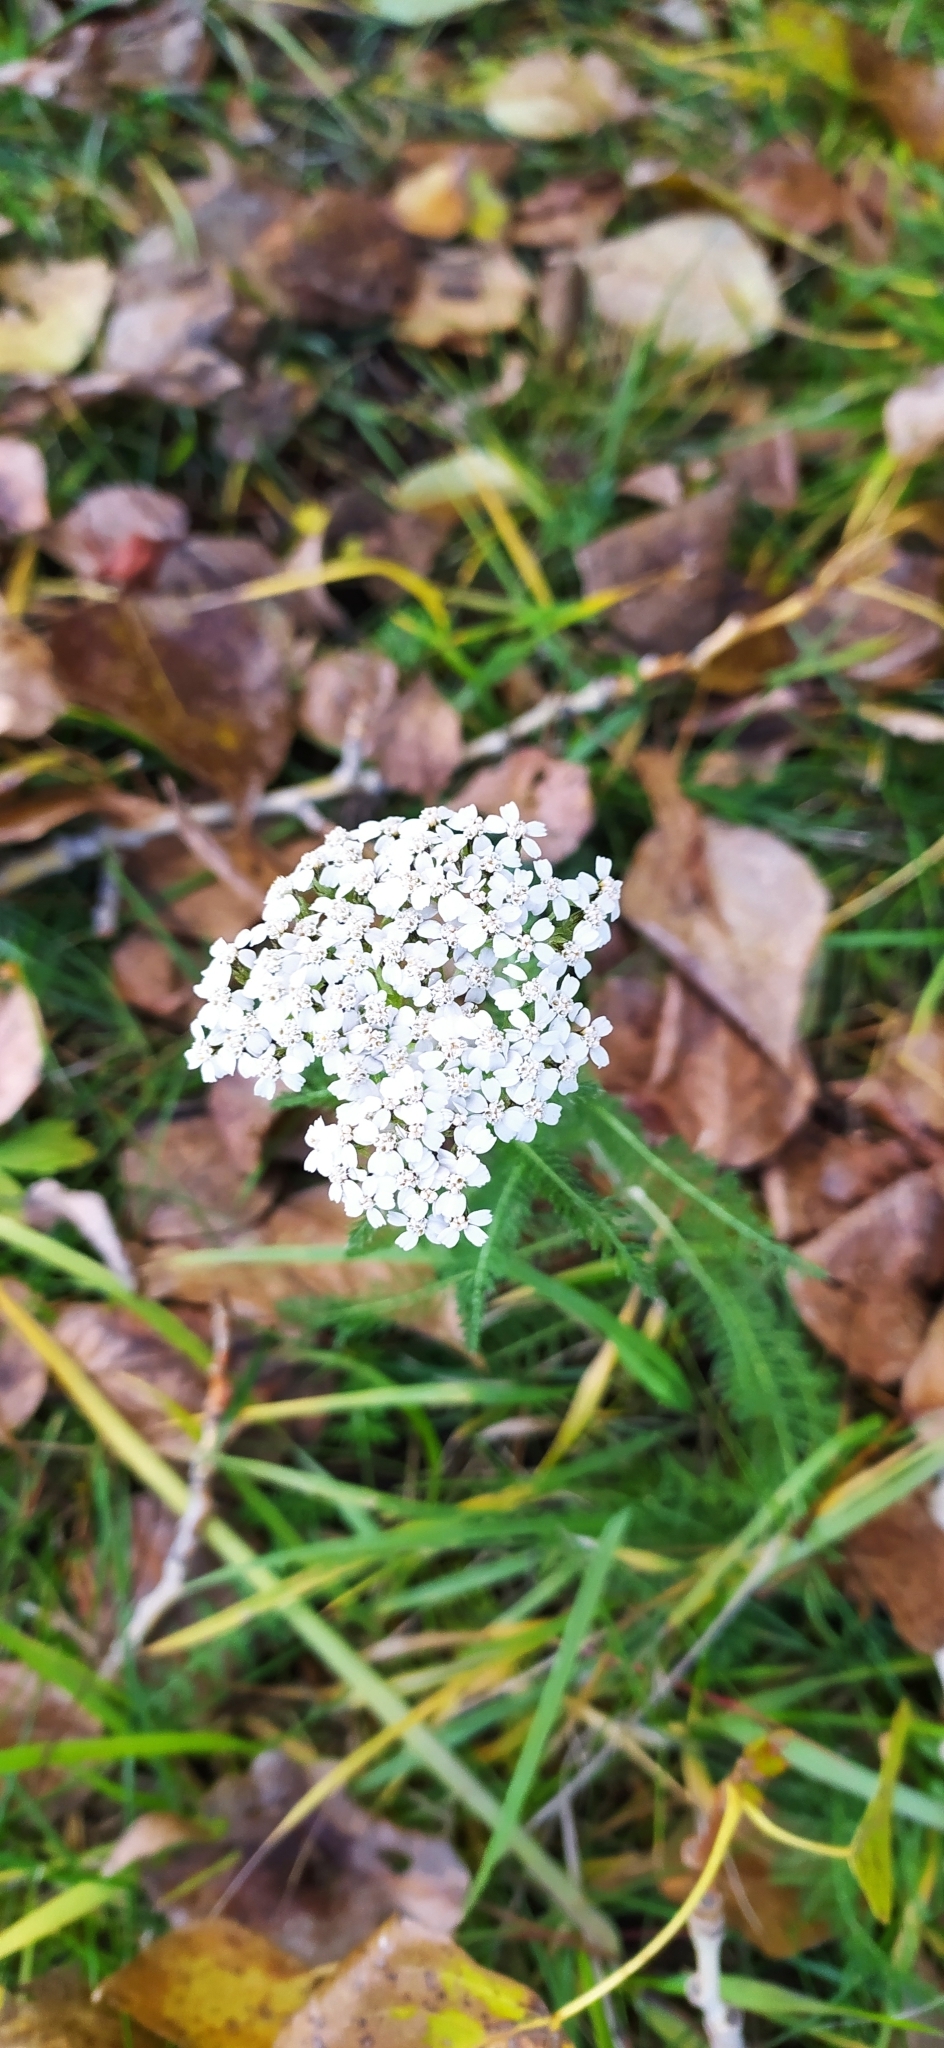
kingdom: Plantae
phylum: Tracheophyta
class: Magnoliopsida
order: Asterales
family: Asteraceae
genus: Achillea
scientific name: Achillea millefolium
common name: Yarrow
